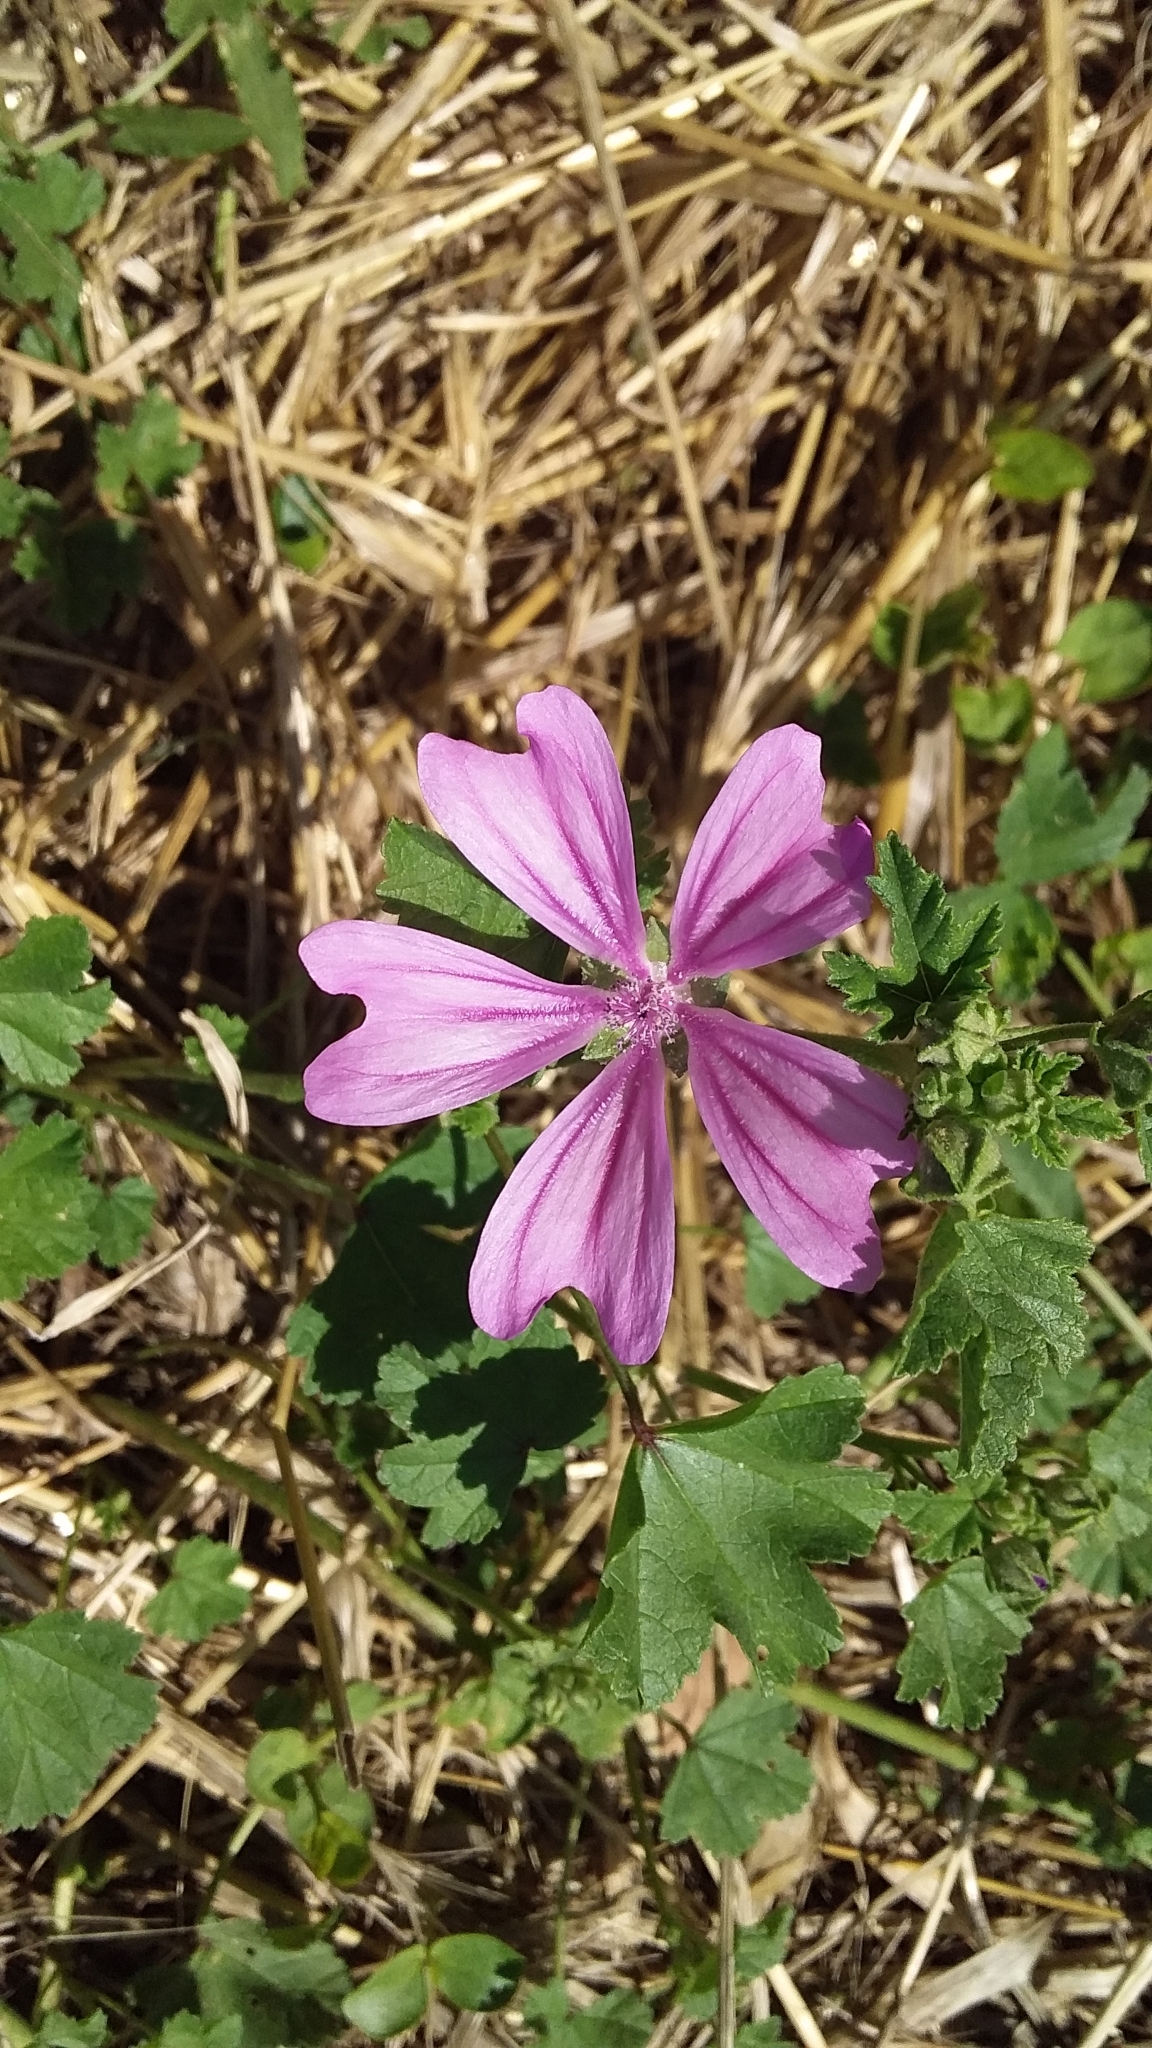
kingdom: Plantae
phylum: Tracheophyta
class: Magnoliopsida
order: Malvales
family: Malvaceae
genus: Malva
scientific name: Malva sylvestris
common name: Common mallow
